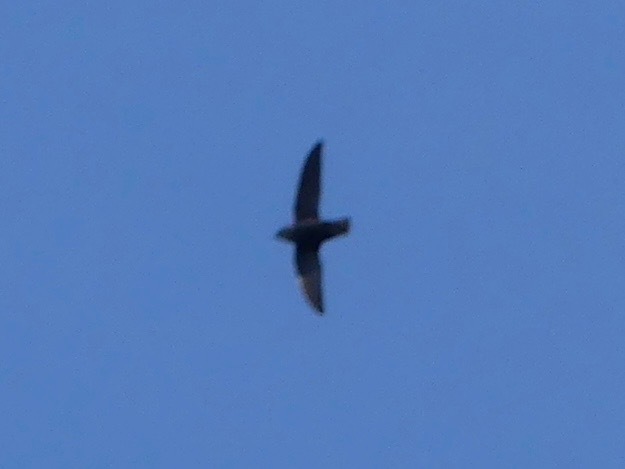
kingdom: Animalia
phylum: Chordata
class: Aves
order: Apodiformes
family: Apodidae
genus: Chaetura
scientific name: Chaetura pelagica
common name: Chimney swift
